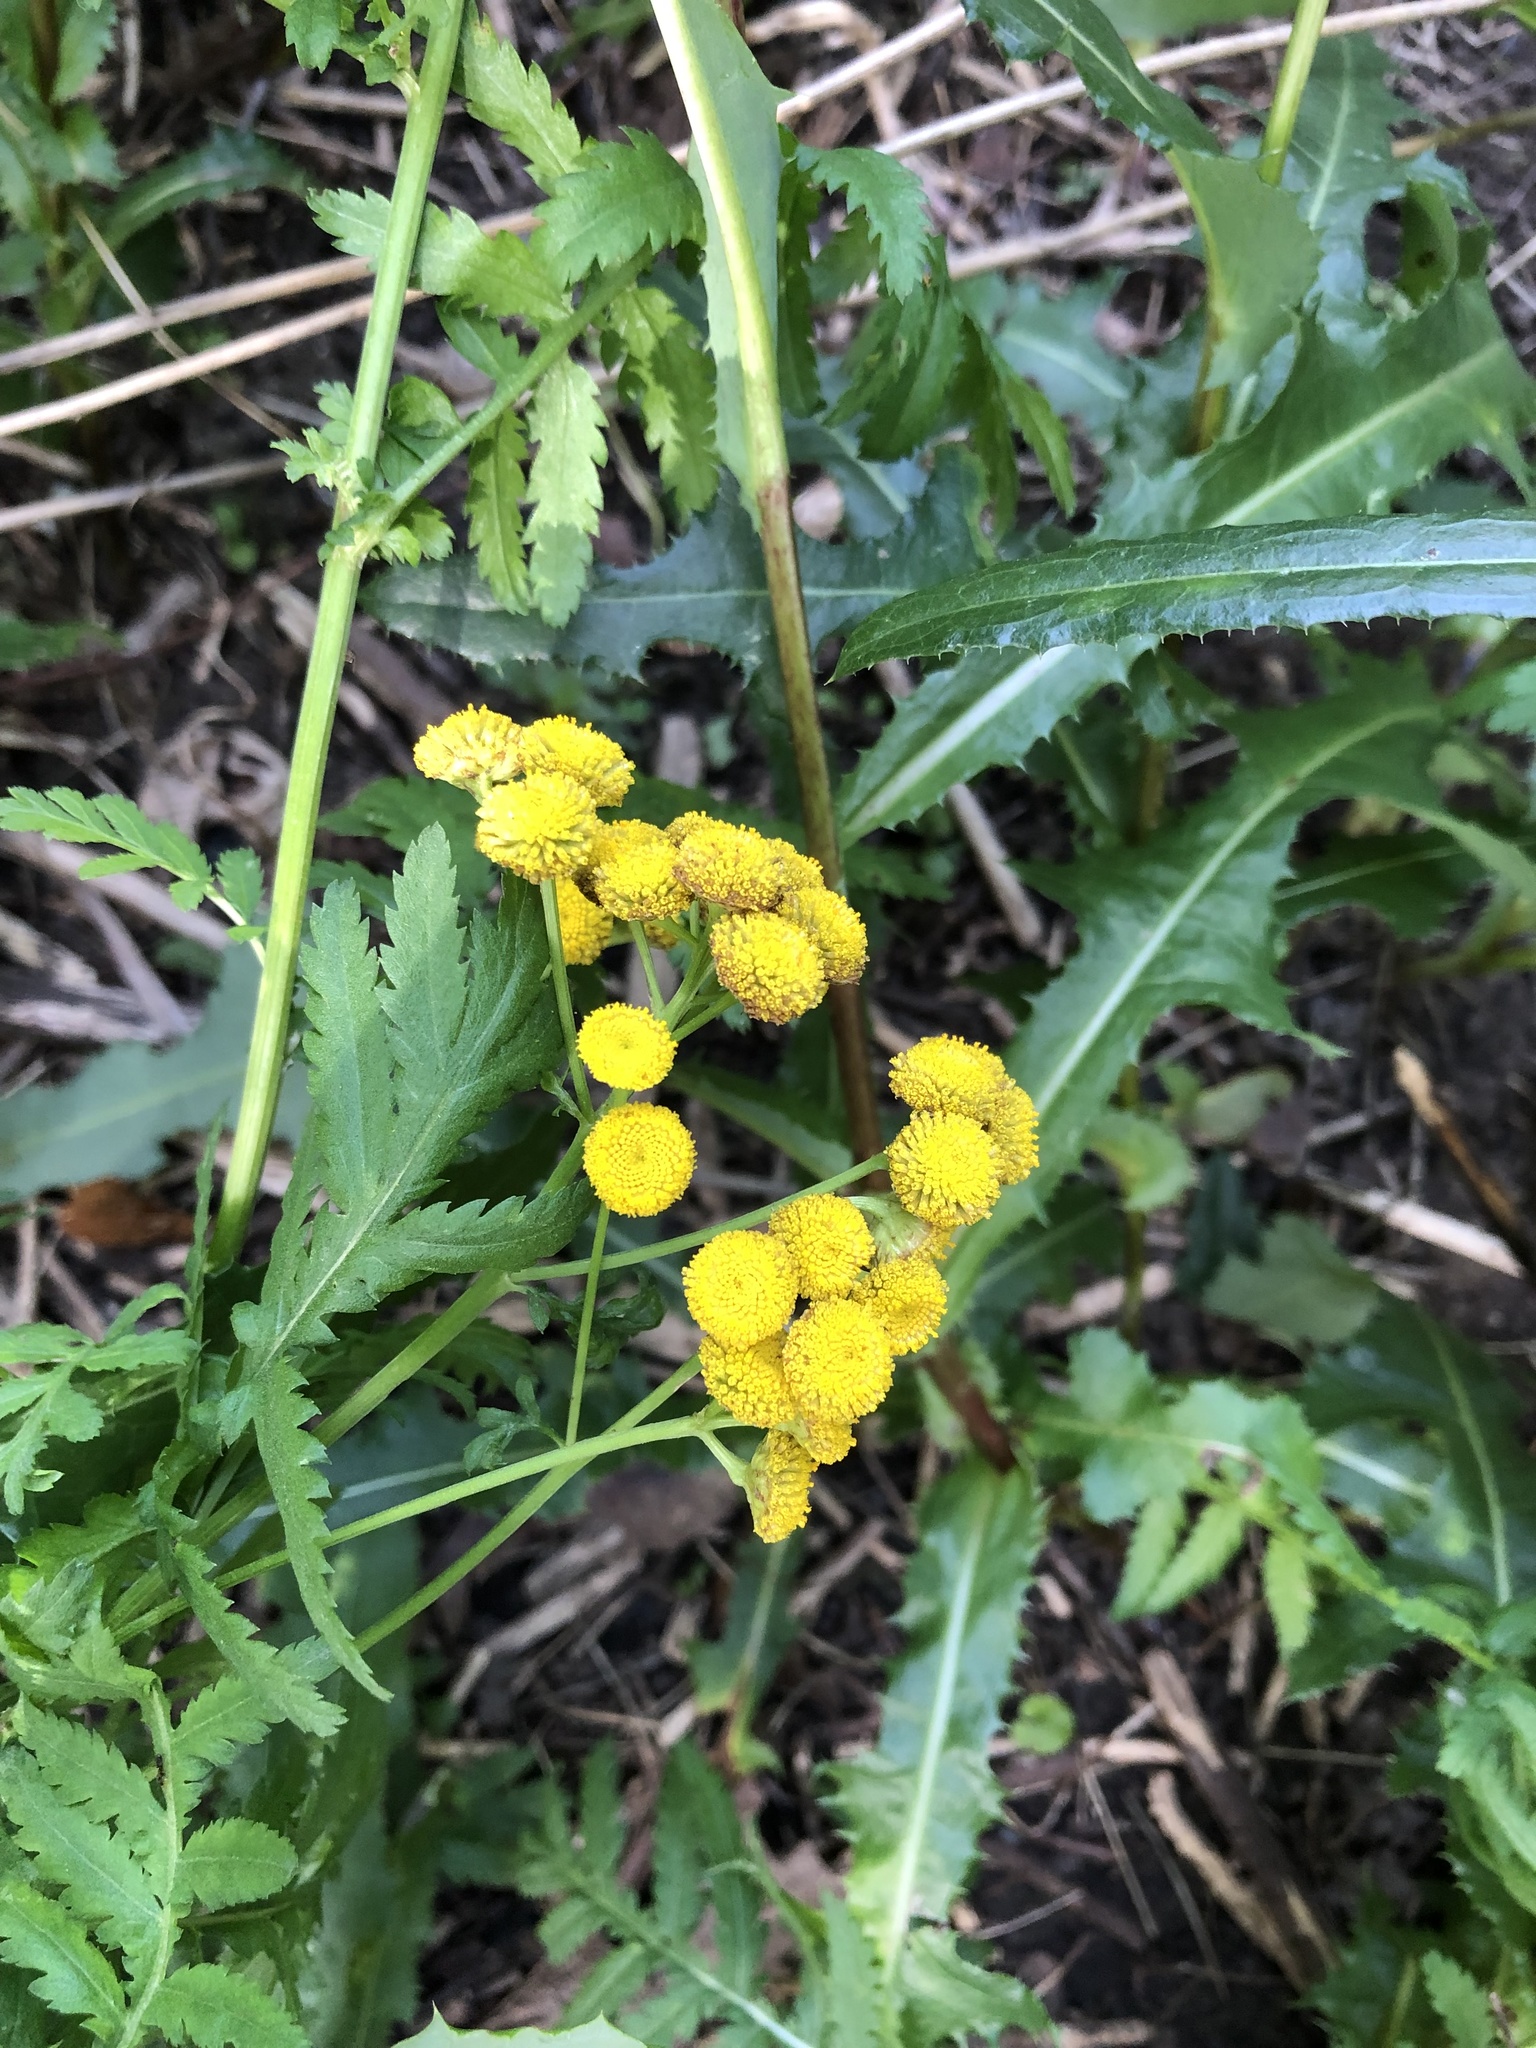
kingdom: Plantae
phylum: Tracheophyta
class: Magnoliopsida
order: Asterales
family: Asteraceae
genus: Tanacetum
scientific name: Tanacetum vulgare
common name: Common tansy
